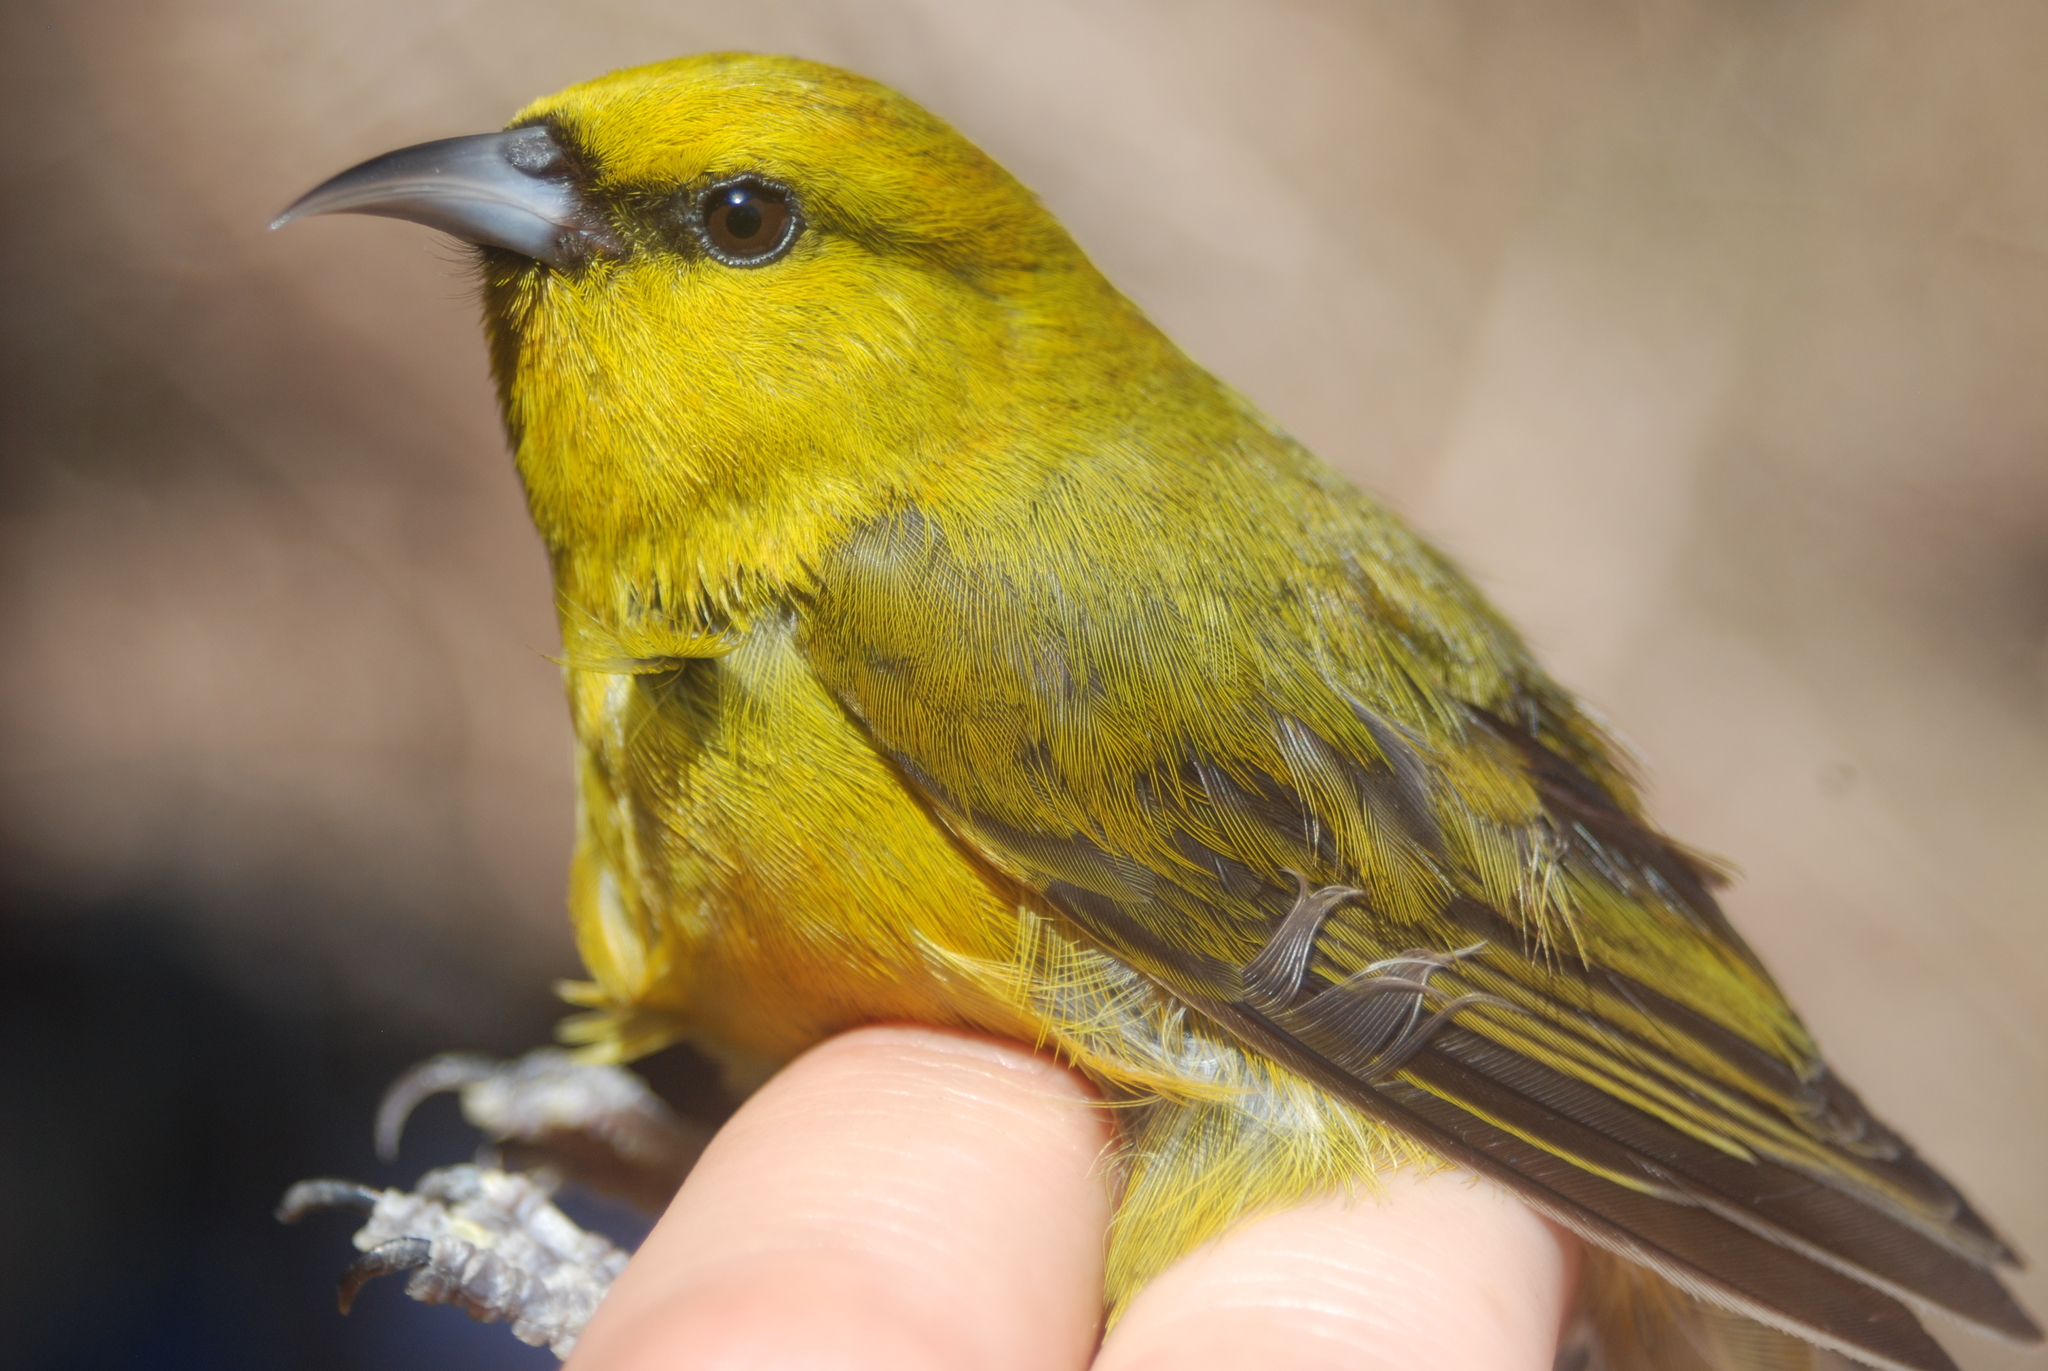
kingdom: Animalia
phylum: Chordata
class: Aves
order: Passeriformes
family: Fringillidae
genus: Chlorodrepanis
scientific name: Chlorodrepanis virens
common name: Hawaii amakihi
